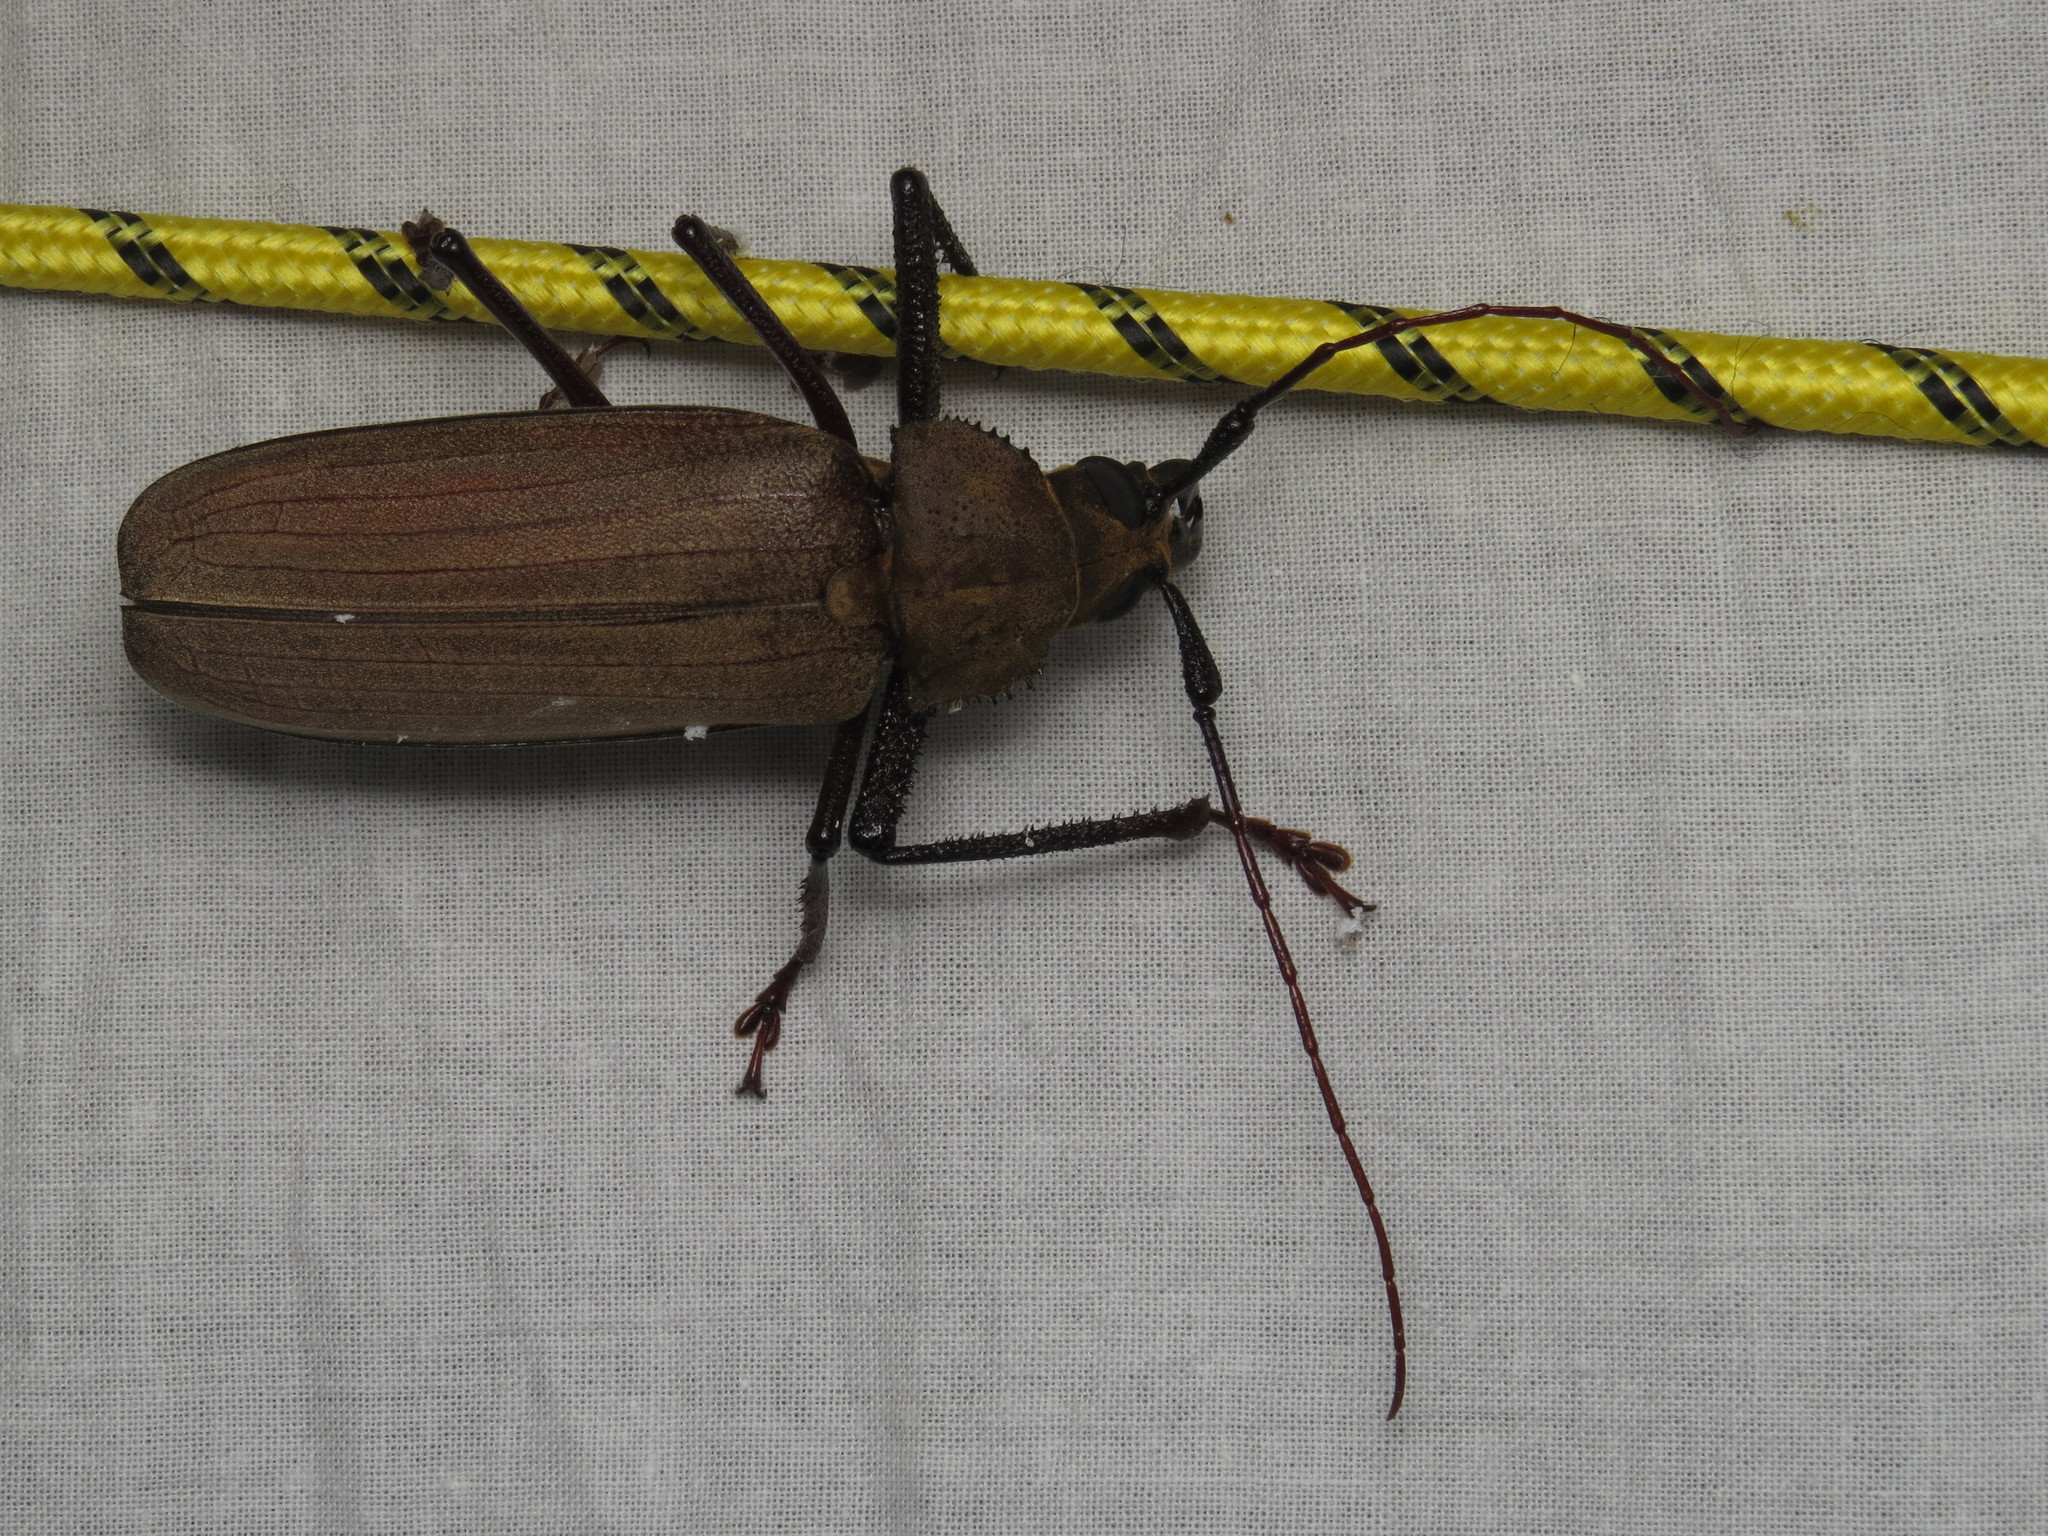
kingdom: Animalia
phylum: Arthropoda
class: Insecta
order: Coleoptera
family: Cerambycidae
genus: Xixuthrus
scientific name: Xixuthrus microcerus
